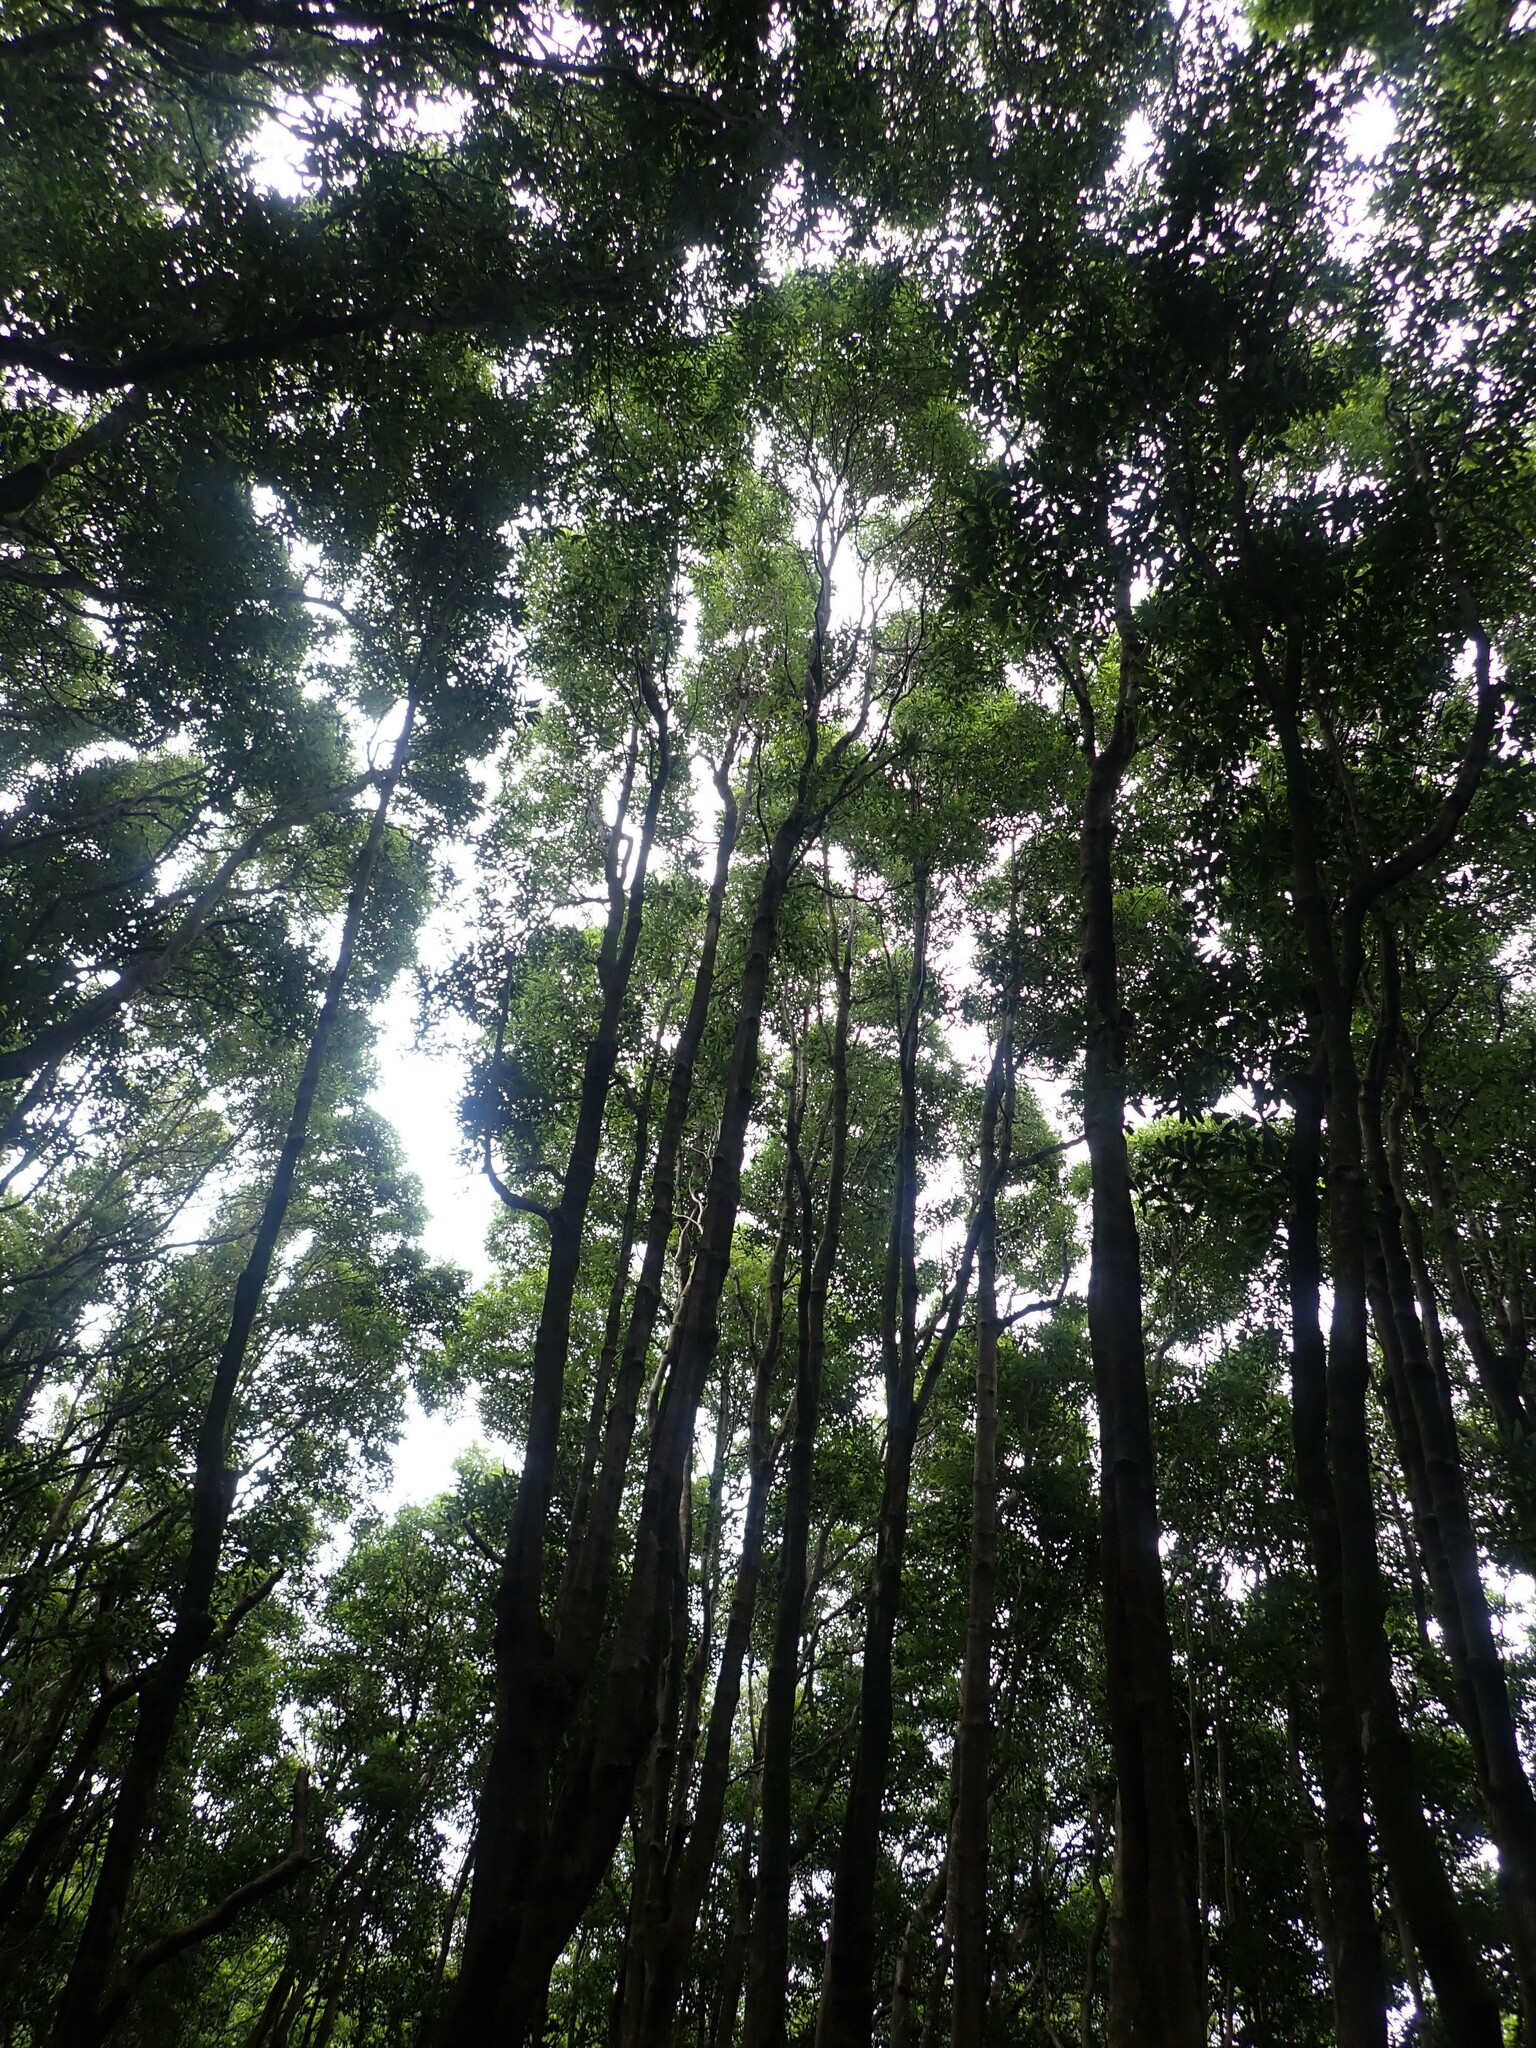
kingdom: Plantae
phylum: Tracheophyta
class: Magnoliopsida
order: Apiales
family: Pittosporaceae
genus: Pittosporum
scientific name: Pittosporum undulatum
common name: Australian cheesewood
